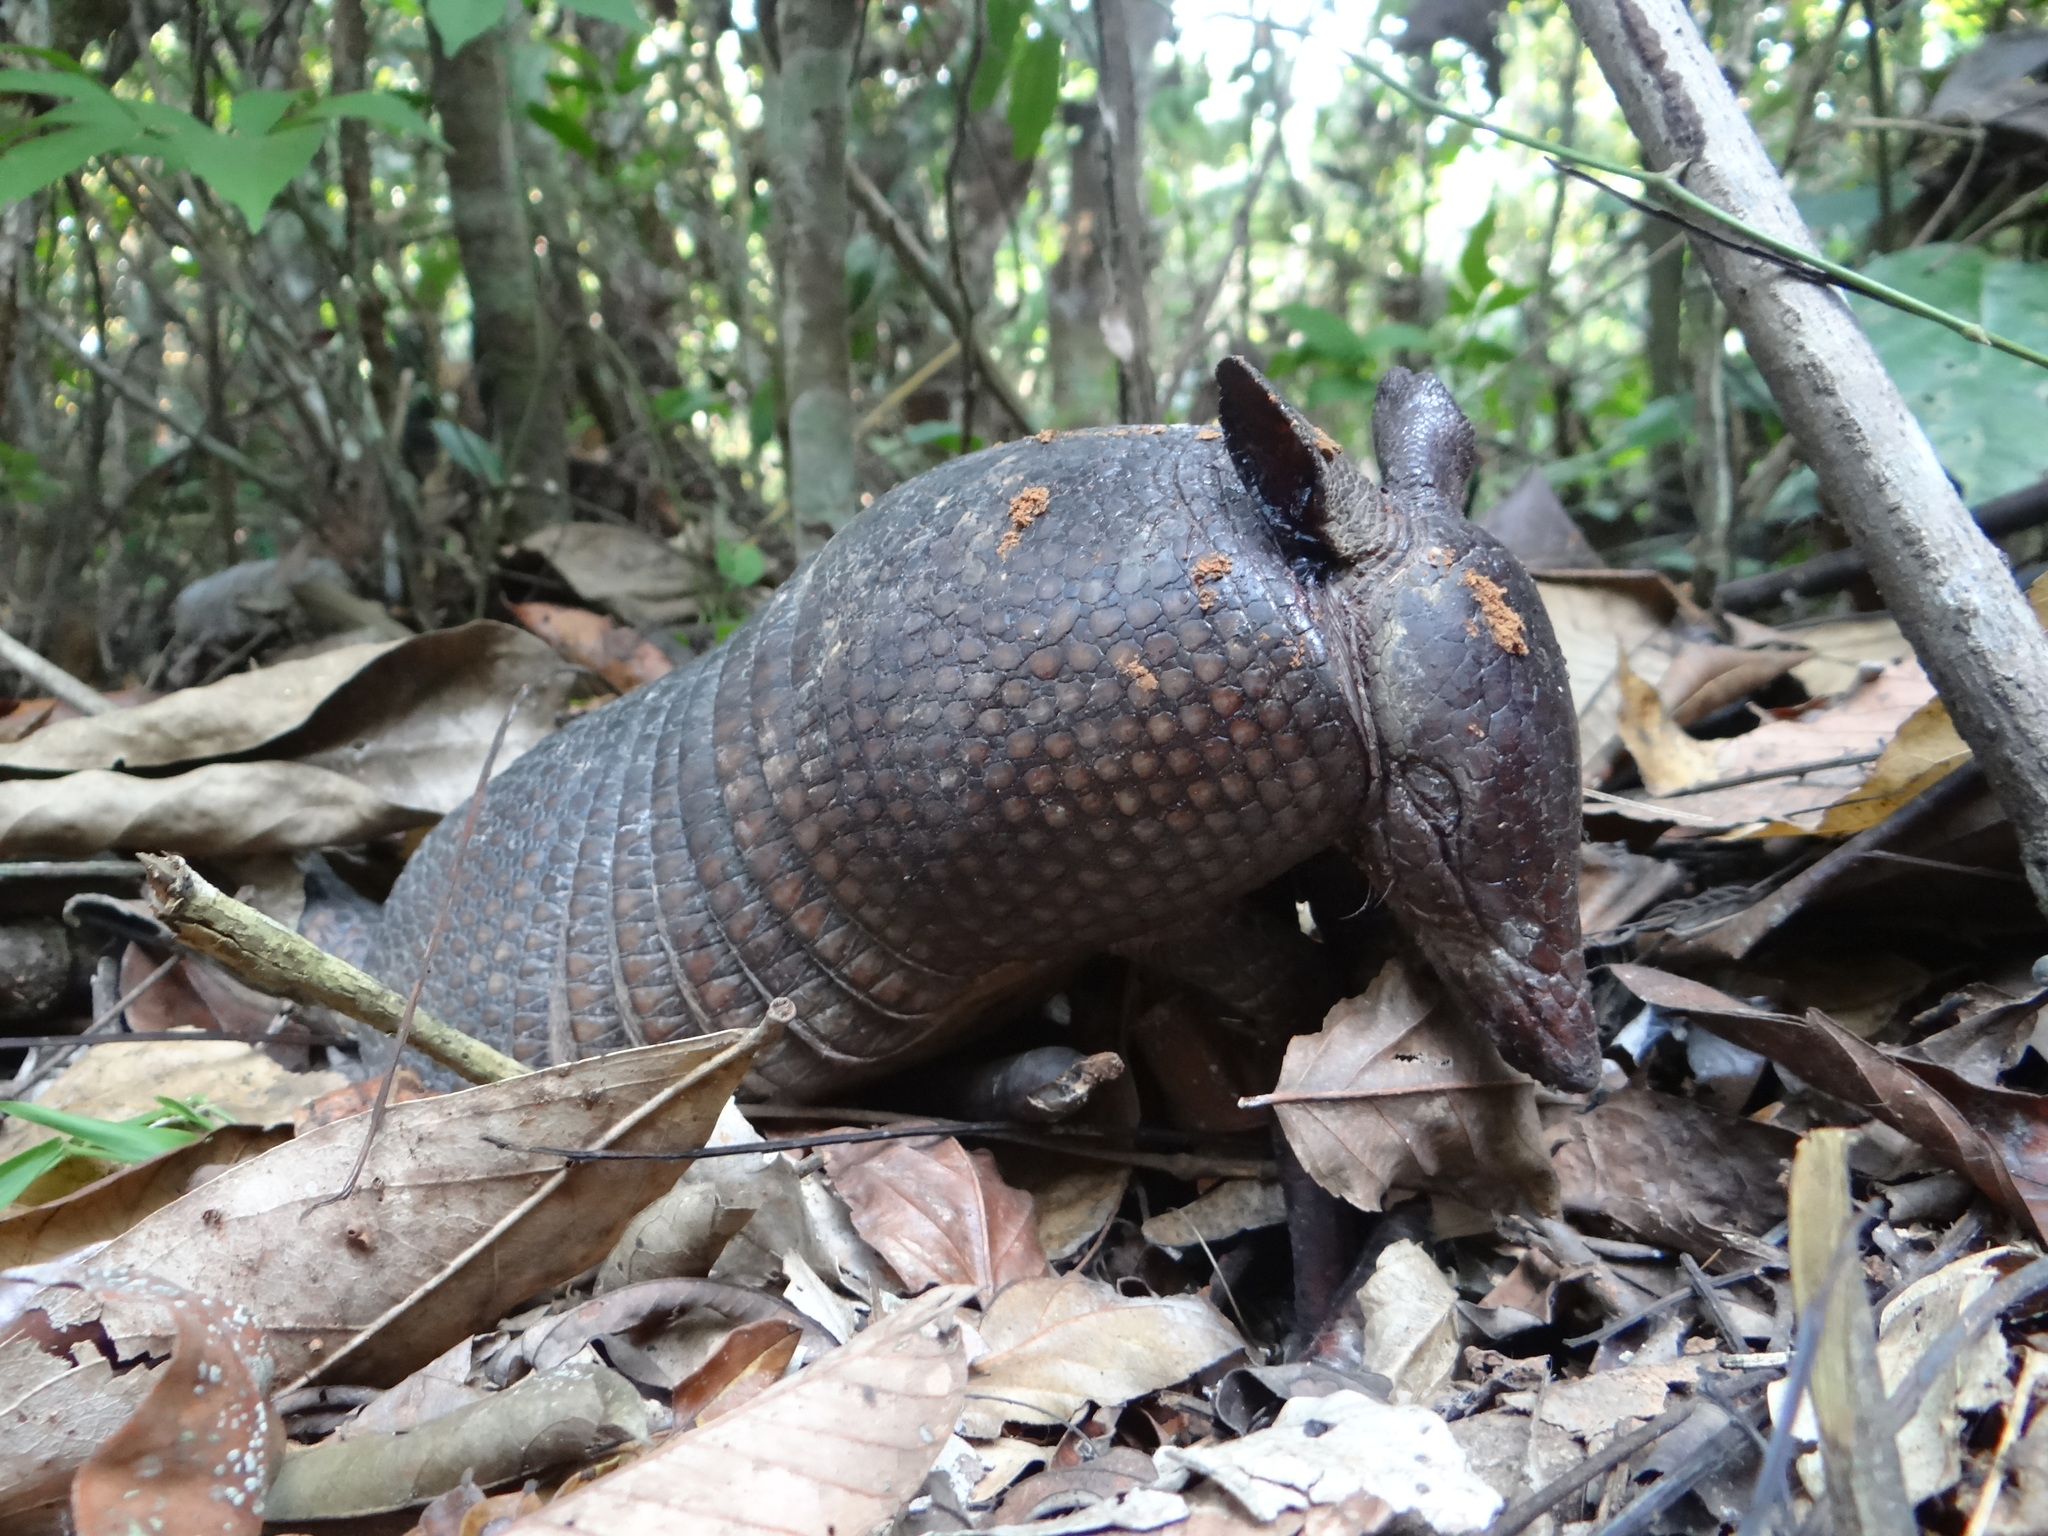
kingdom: Animalia
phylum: Chordata
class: Mammalia
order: Cingulata
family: Dasypodidae
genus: Dasypus
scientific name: Dasypus septemcinctus
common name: Seven-banded armadillo
